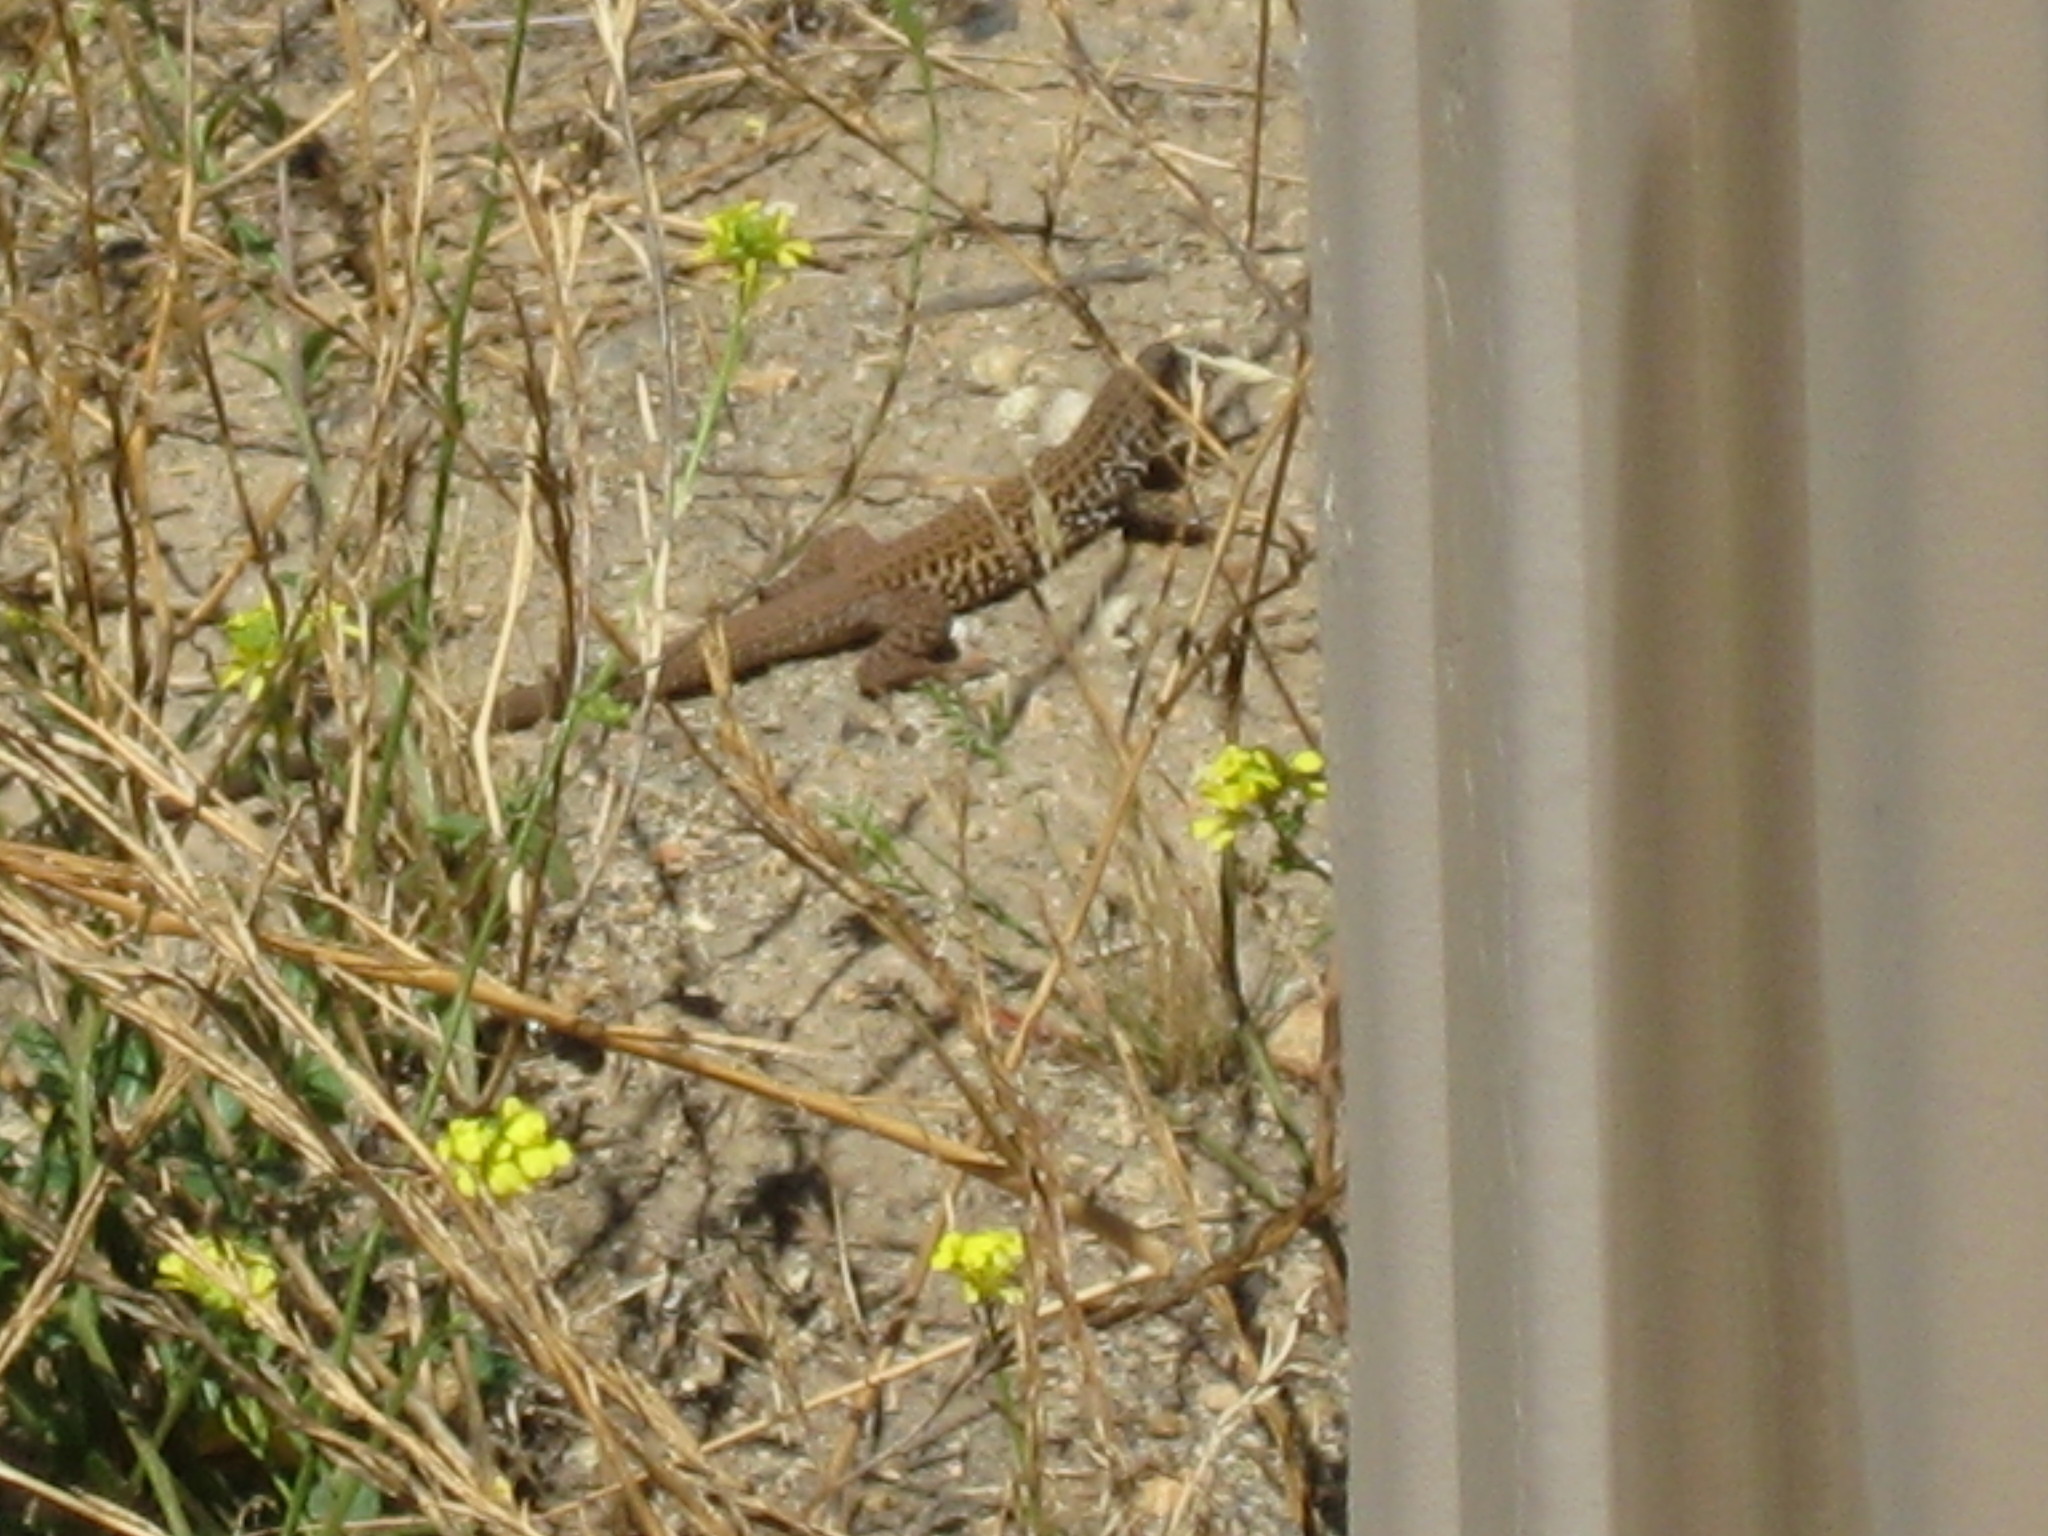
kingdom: Animalia
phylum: Chordata
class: Squamata
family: Teiidae
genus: Aspidoscelis
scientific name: Aspidoscelis tigris
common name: Tiger whiptail
